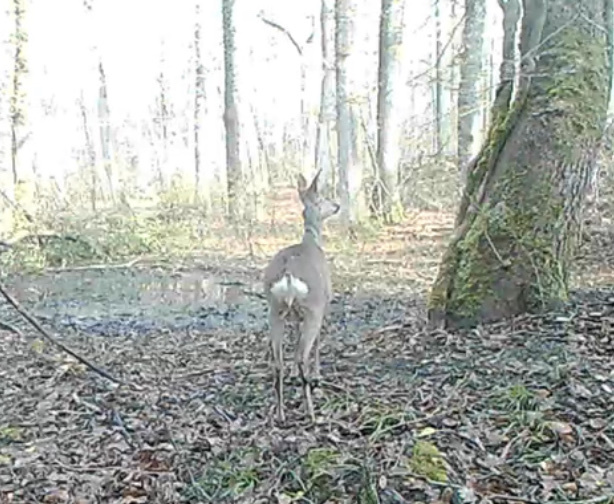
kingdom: Animalia
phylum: Chordata
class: Mammalia
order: Artiodactyla
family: Cervidae
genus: Capreolus
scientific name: Capreolus capreolus
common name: Western roe deer
